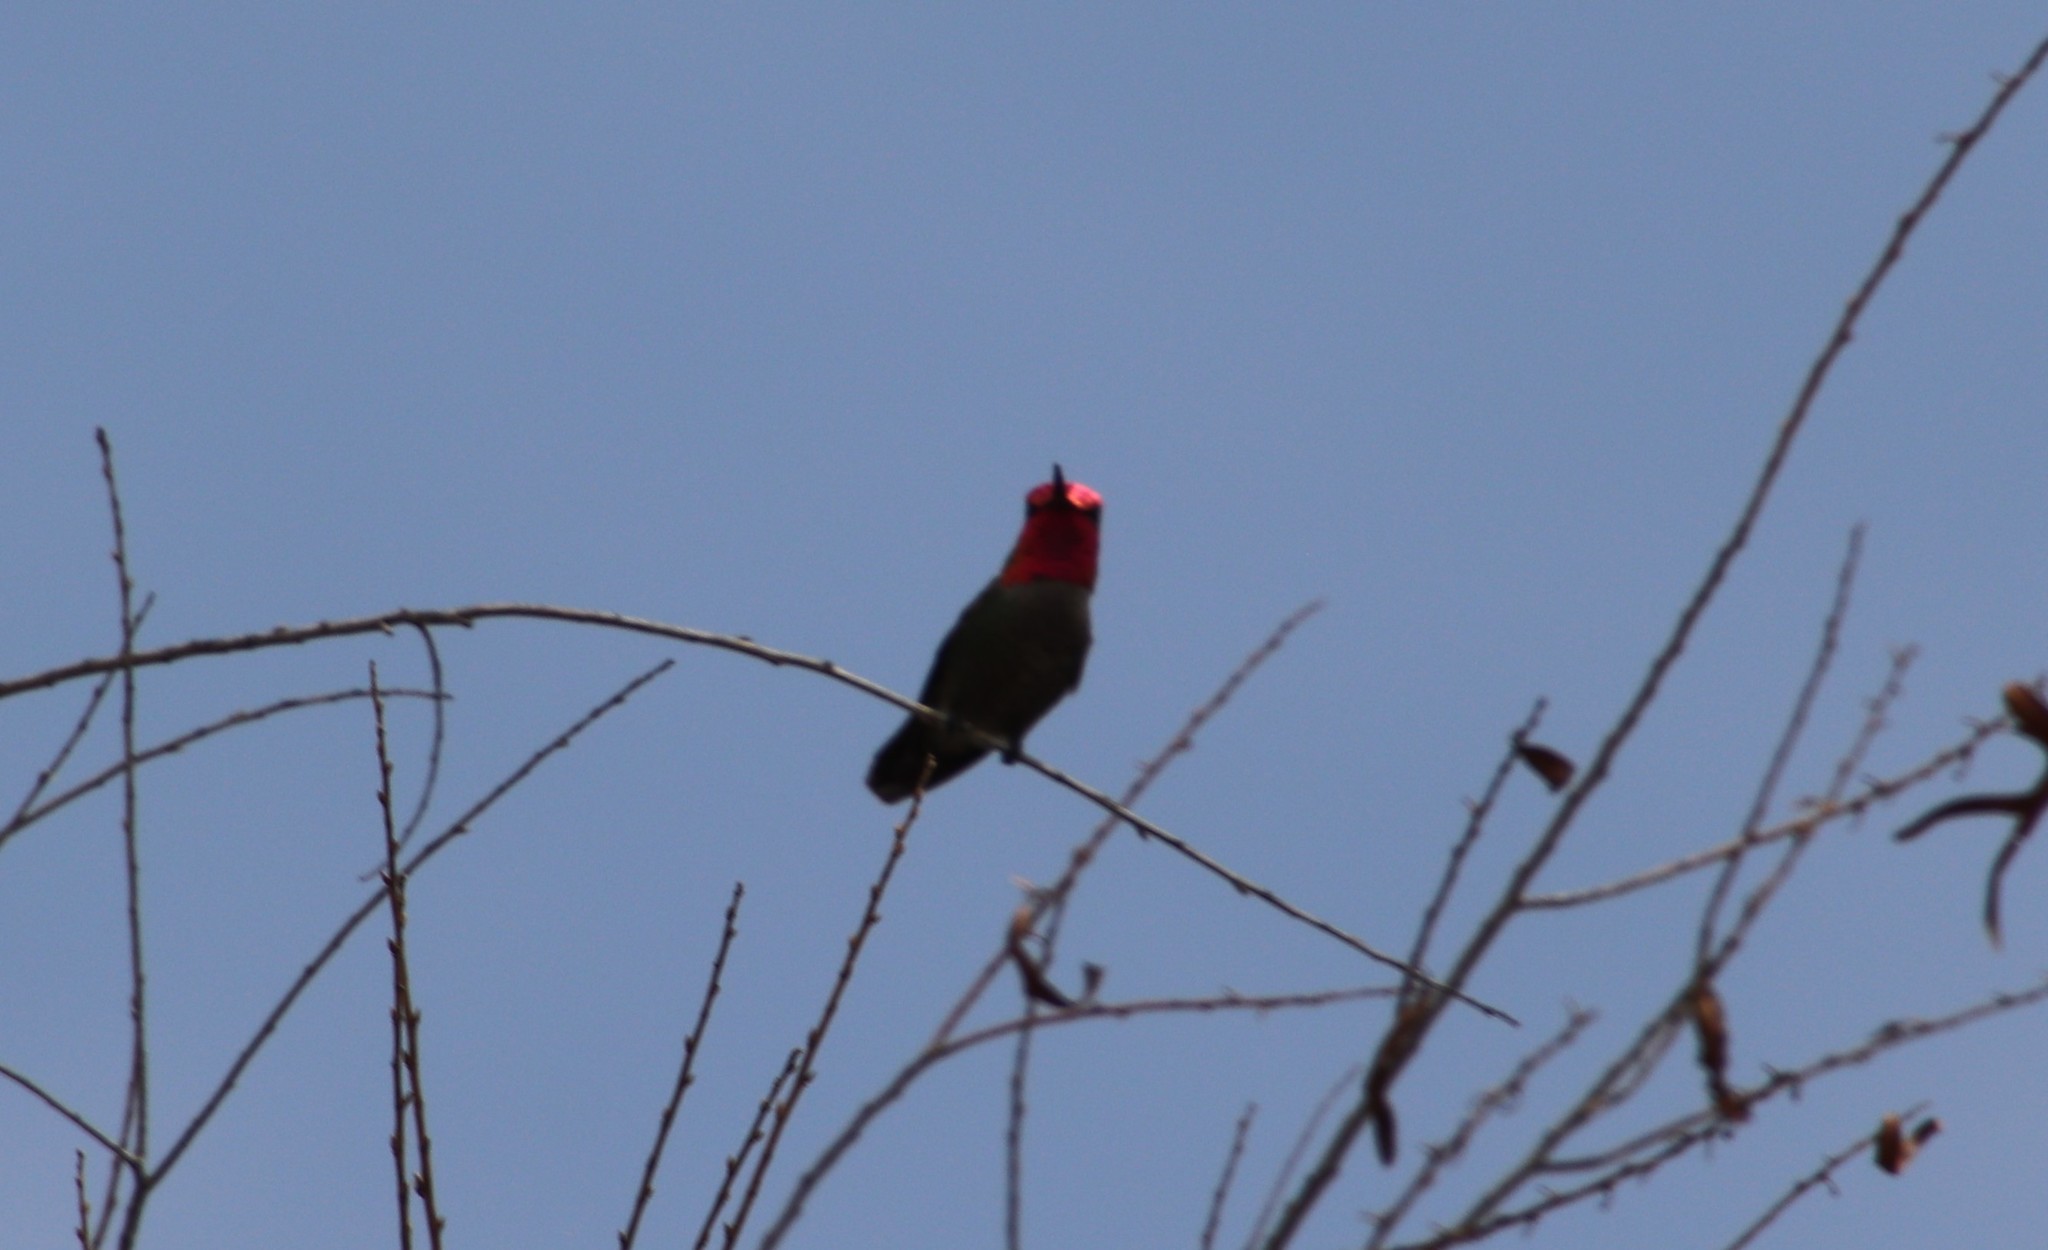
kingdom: Animalia
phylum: Chordata
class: Aves
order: Apodiformes
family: Trochilidae
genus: Calypte
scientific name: Calypte anna
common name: Anna's hummingbird
